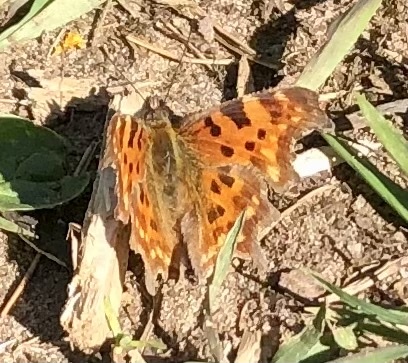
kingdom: Animalia
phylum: Arthropoda
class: Insecta
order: Lepidoptera
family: Nymphalidae
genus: Polygonia
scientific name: Polygonia c-album
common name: Comma
